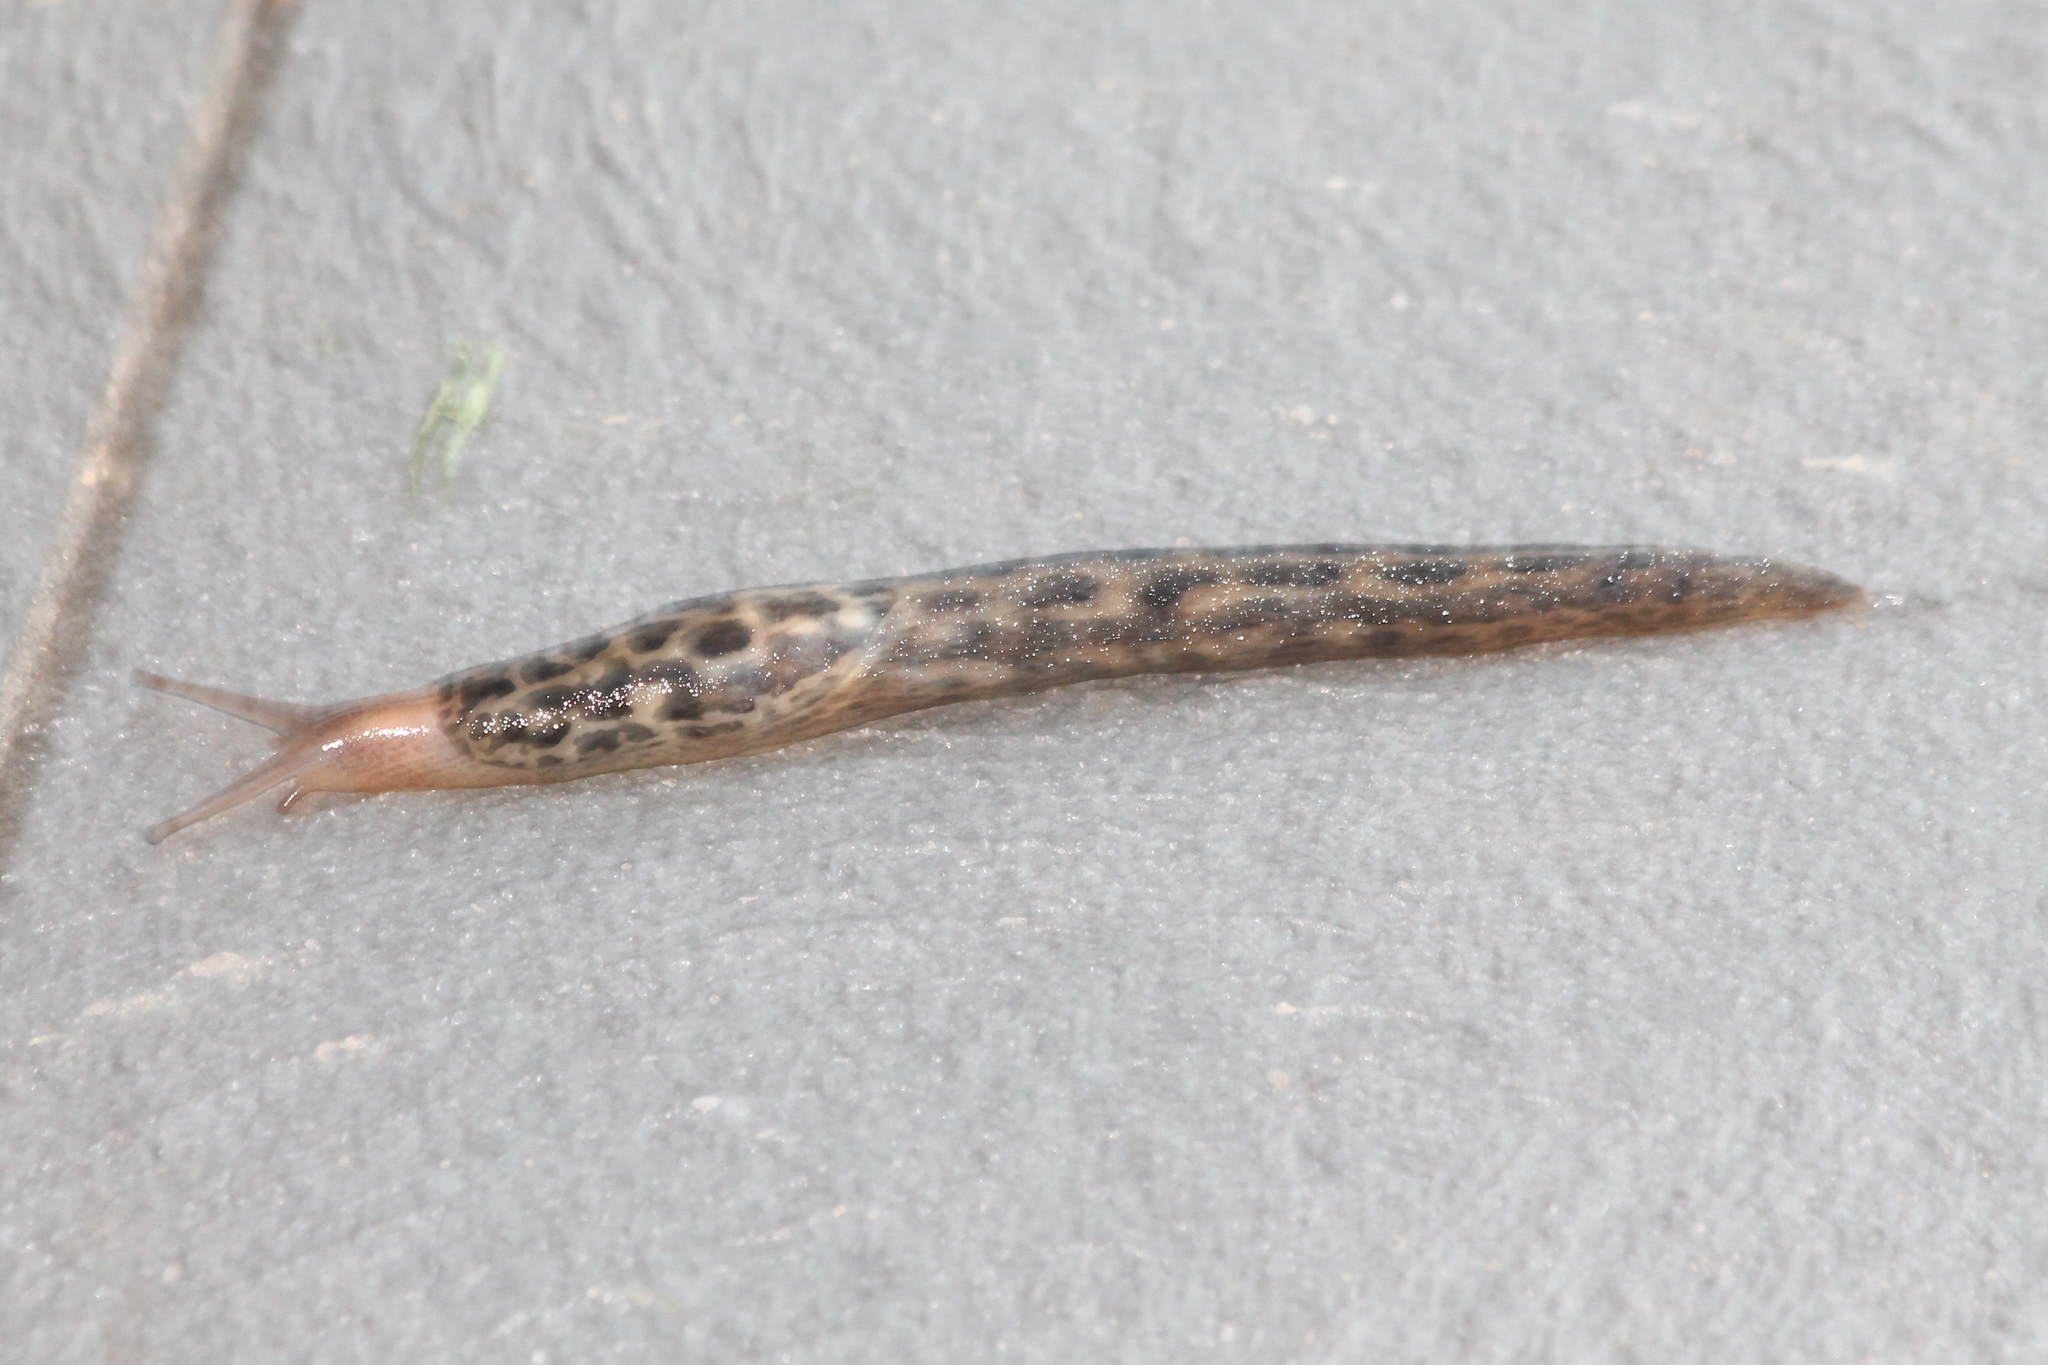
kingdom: Animalia
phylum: Mollusca
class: Gastropoda
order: Stylommatophora
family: Limacidae
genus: Limax
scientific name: Limax maximus
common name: Great grey slug
